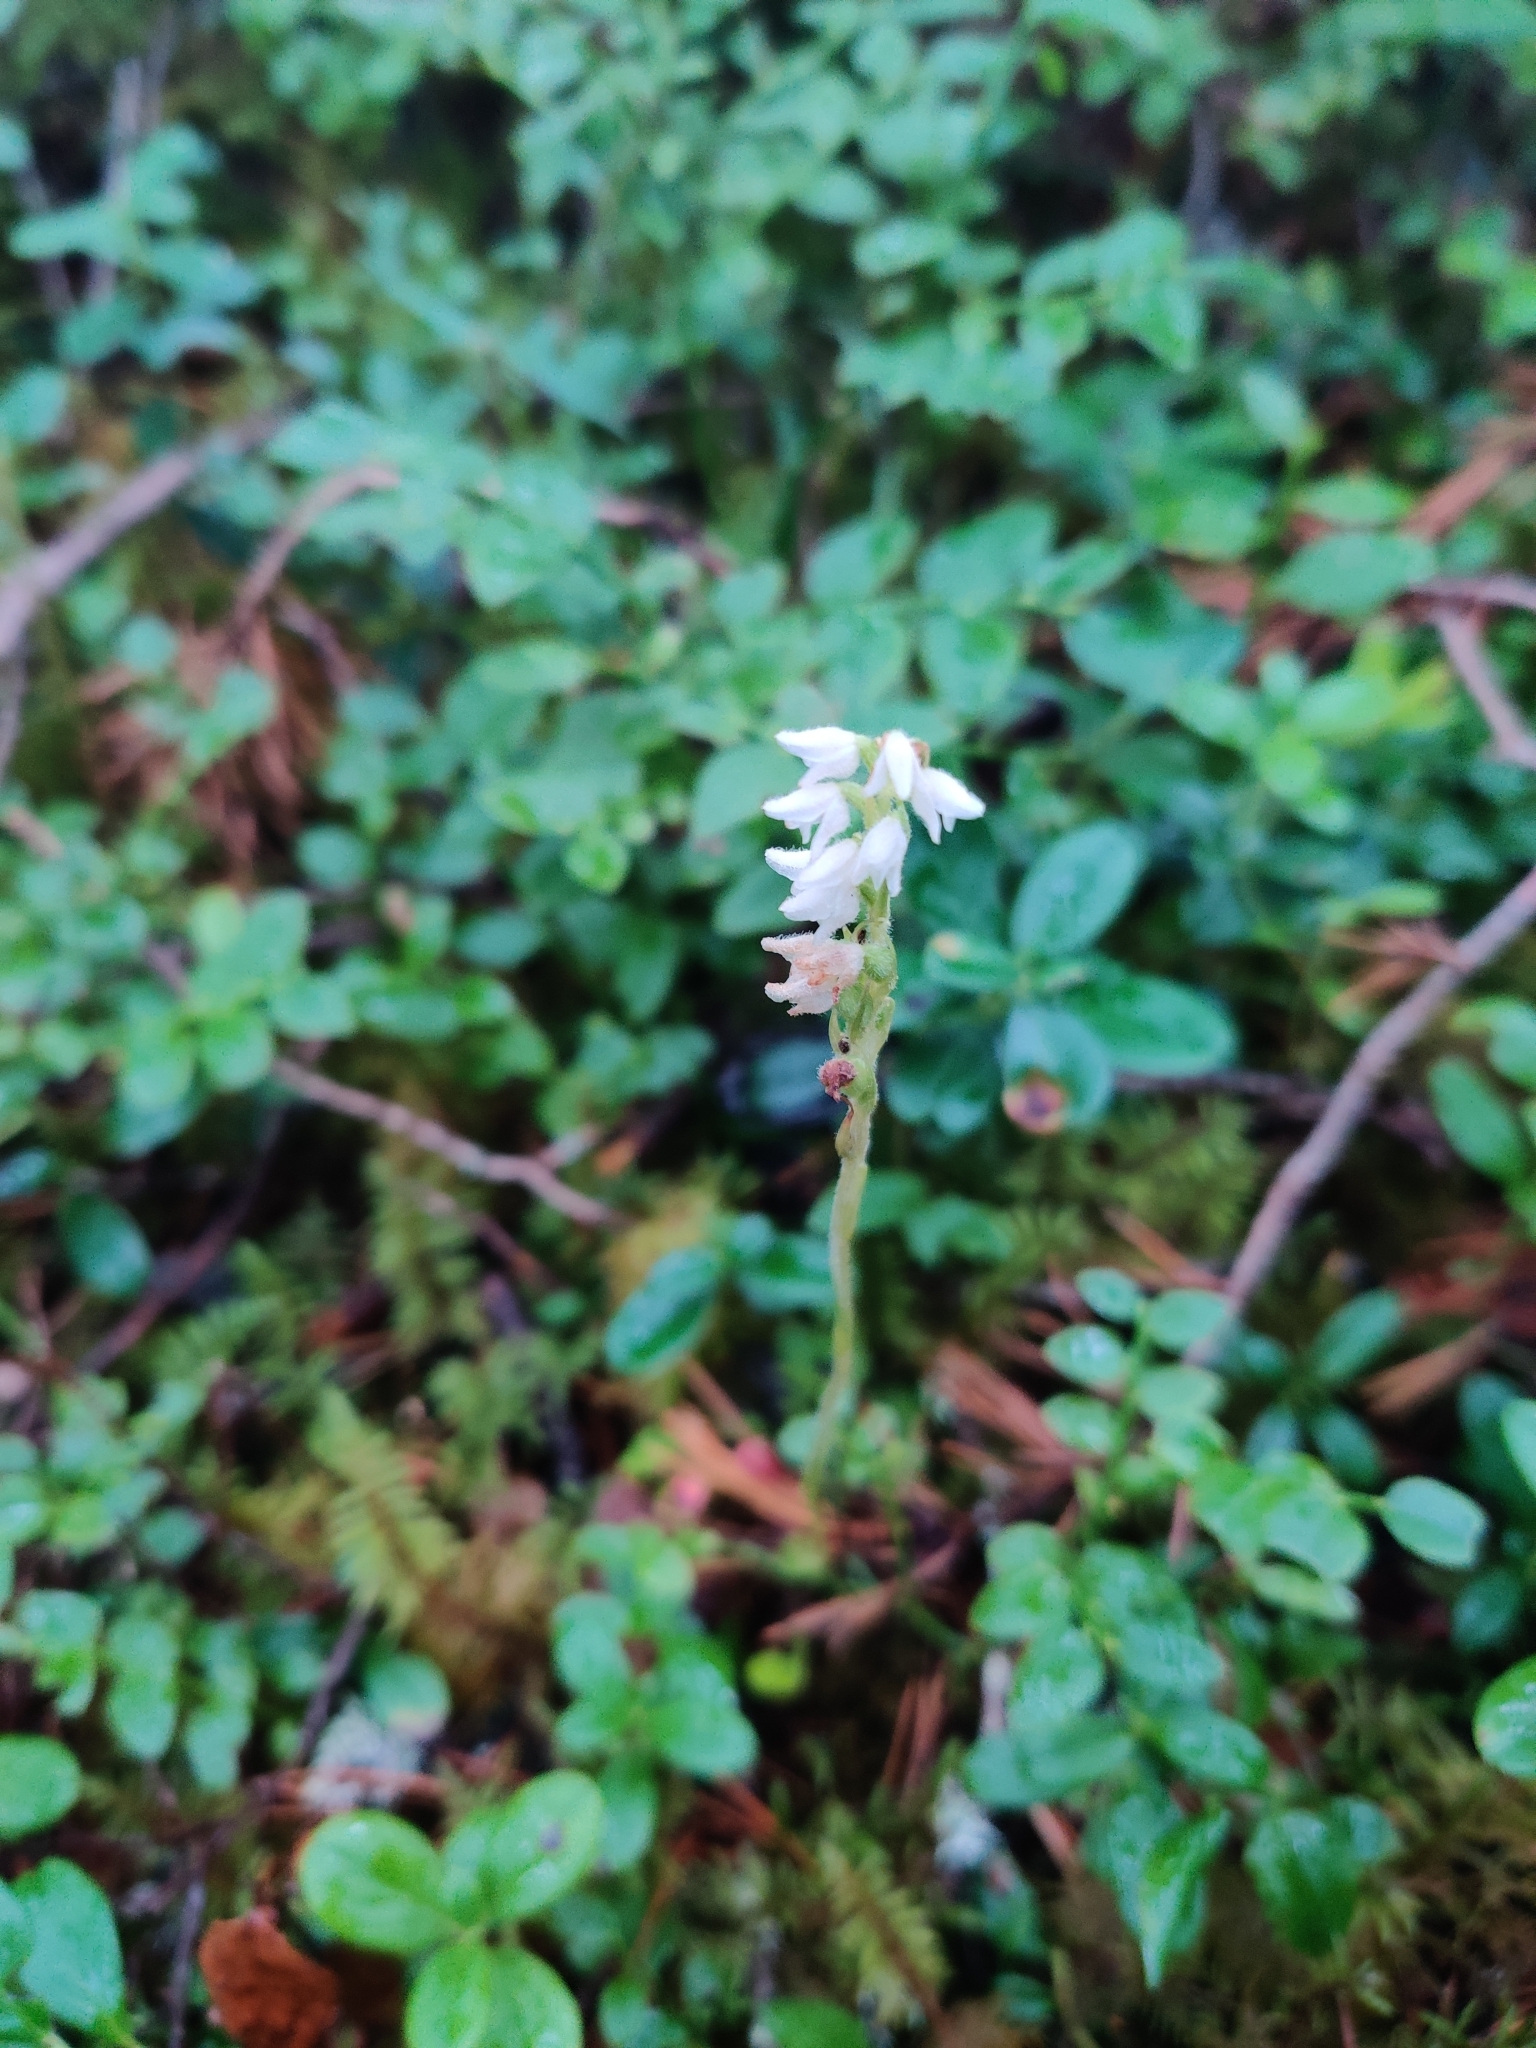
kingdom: Plantae
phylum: Tracheophyta
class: Liliopsida
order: Asparagales
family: Orchidaceae
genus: Goodyera
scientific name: Goodyera repens
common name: Creeping lady's-tresses
